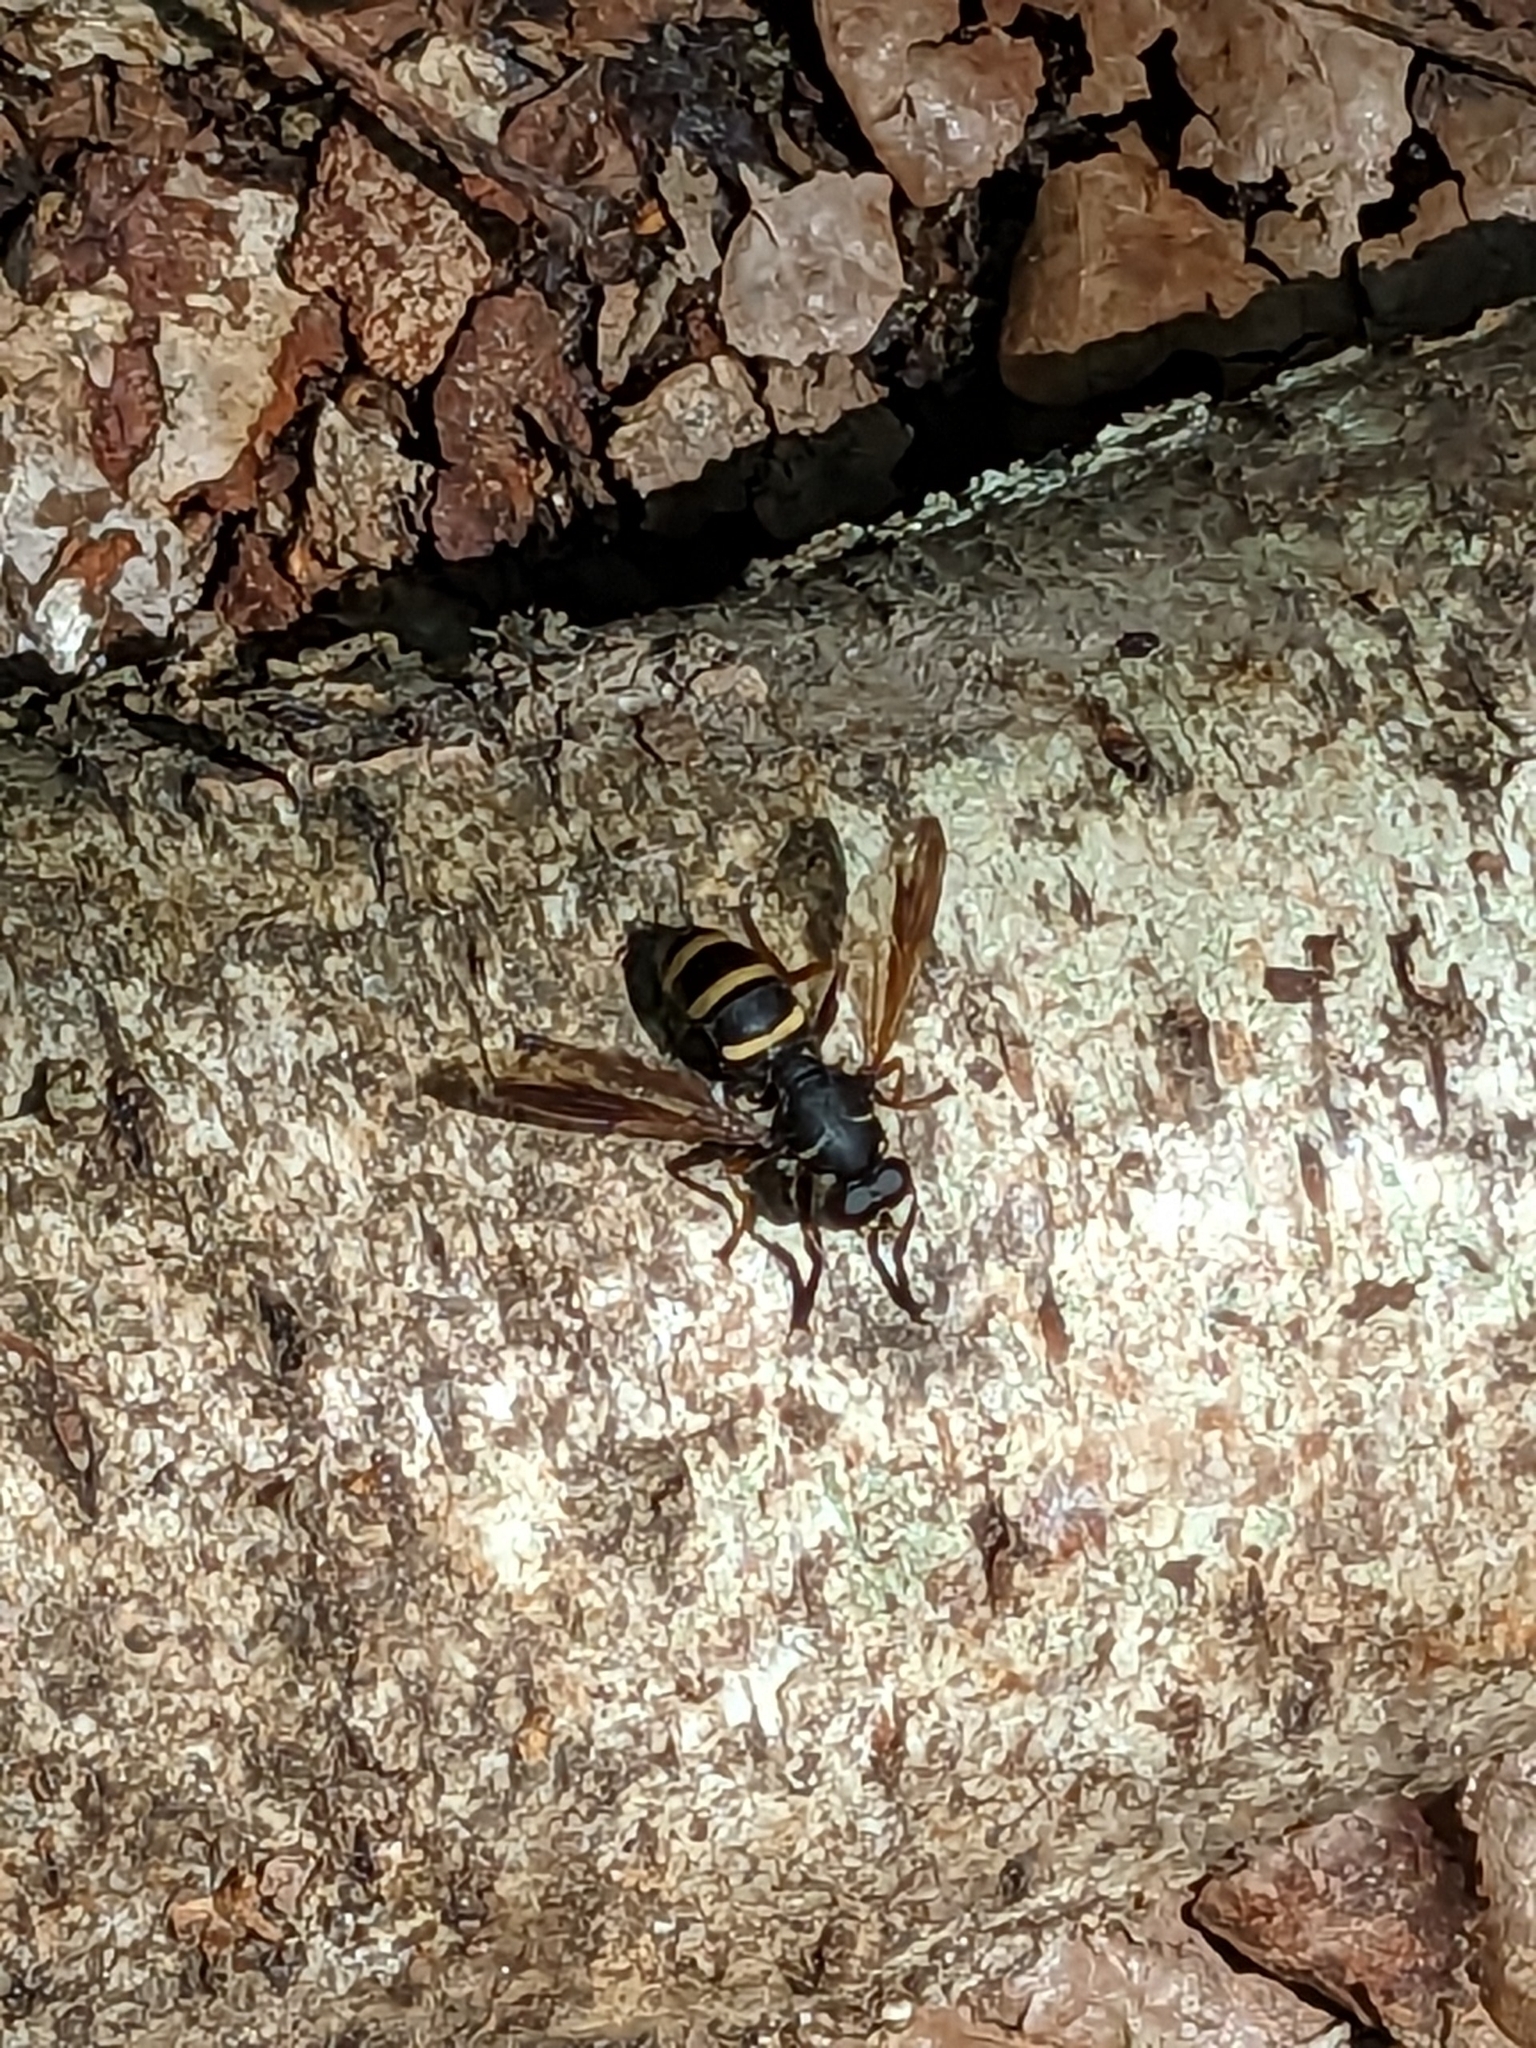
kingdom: Animalia
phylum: Arthropoda
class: Insecta
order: Diptera
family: Syrphidae
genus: Temnostoma
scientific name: Temnostoma bombylans
